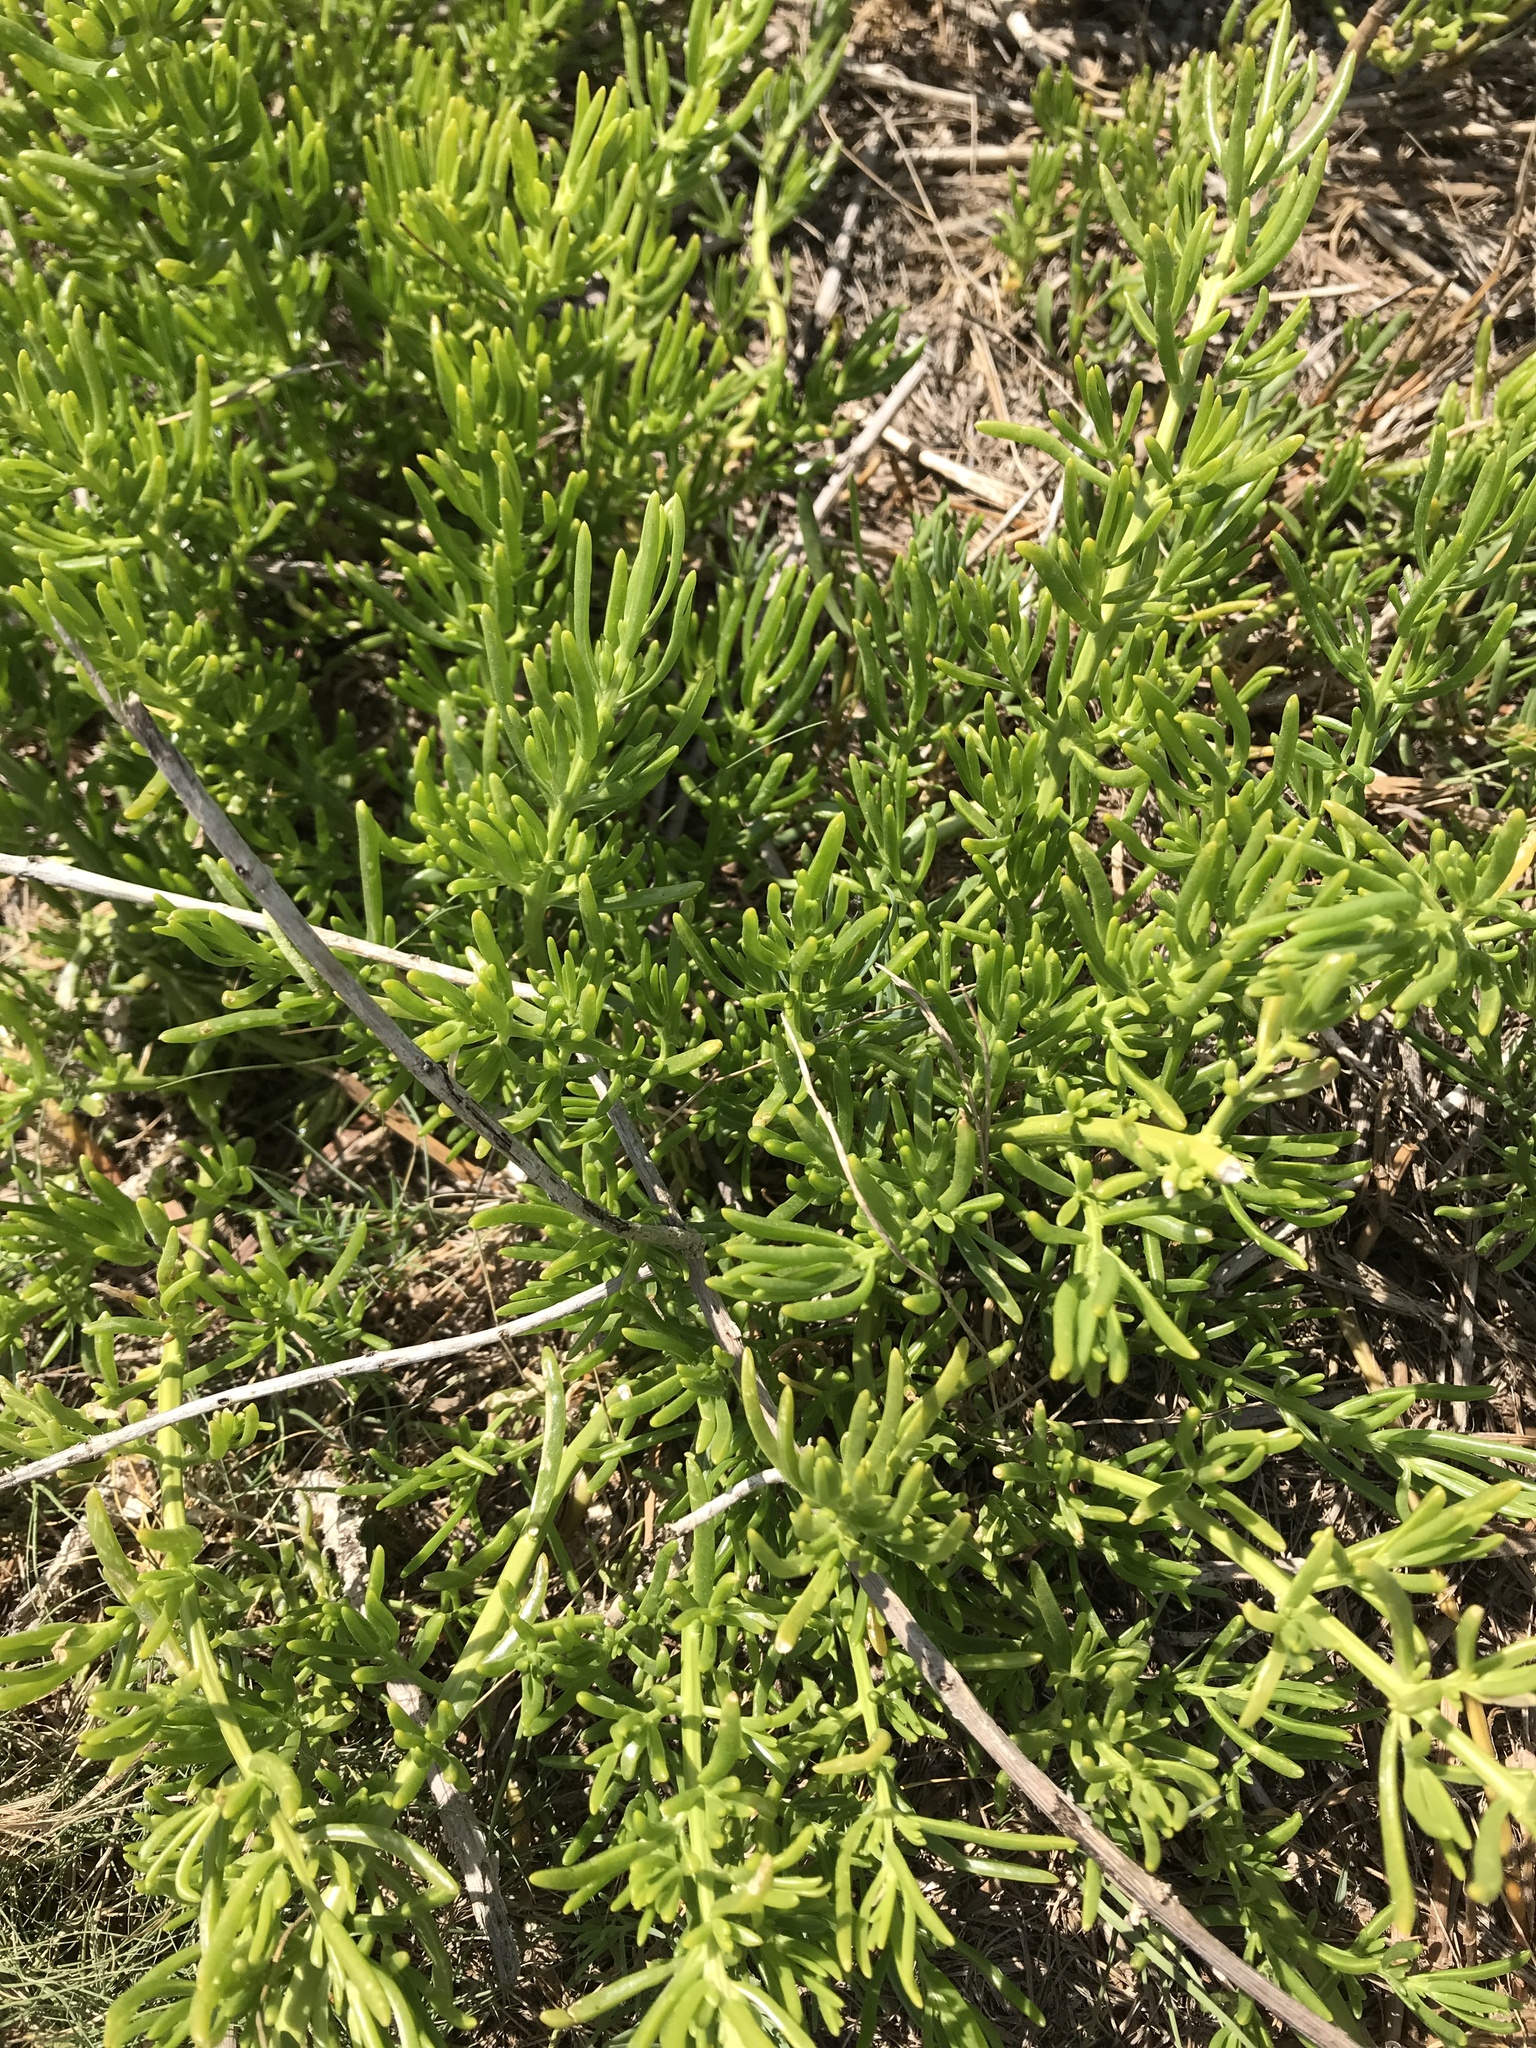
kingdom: Plantae
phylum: Tracheophyta
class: Magnoliopsida
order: Brassicales
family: Bataceae
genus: Batis
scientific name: Batis maritima
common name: Turtleweed
